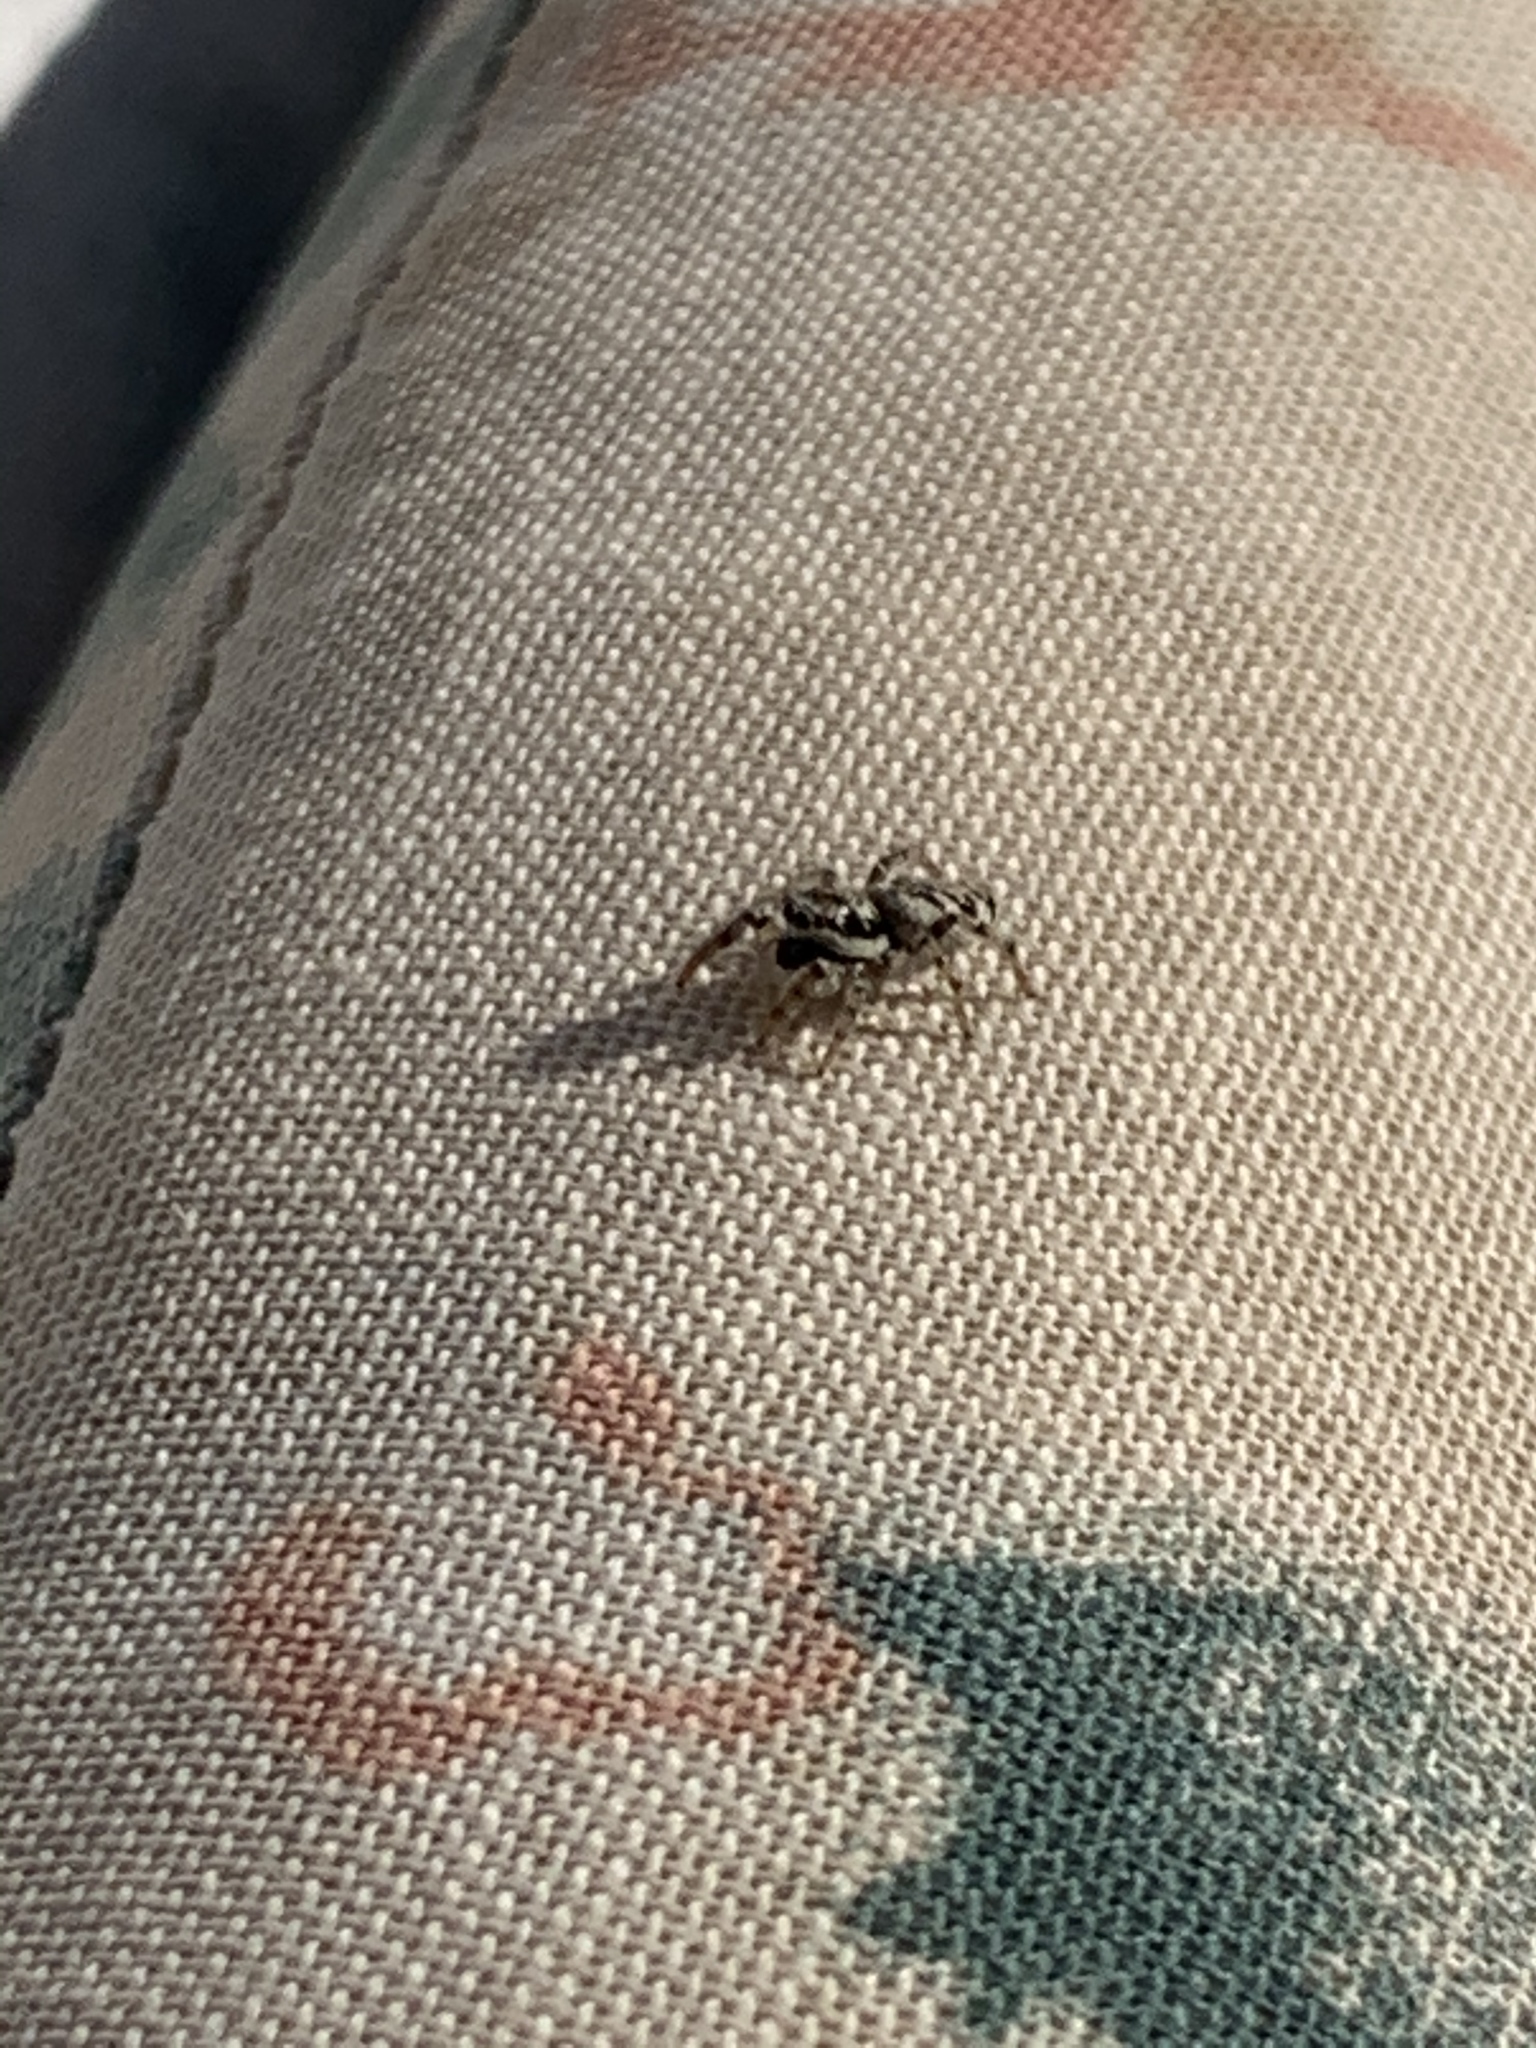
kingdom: Animalia
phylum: Arthropoda
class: Arachnida
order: Araneae
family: Salticidae
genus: Salticus
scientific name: Salticus scenicus
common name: Zebra jumper
